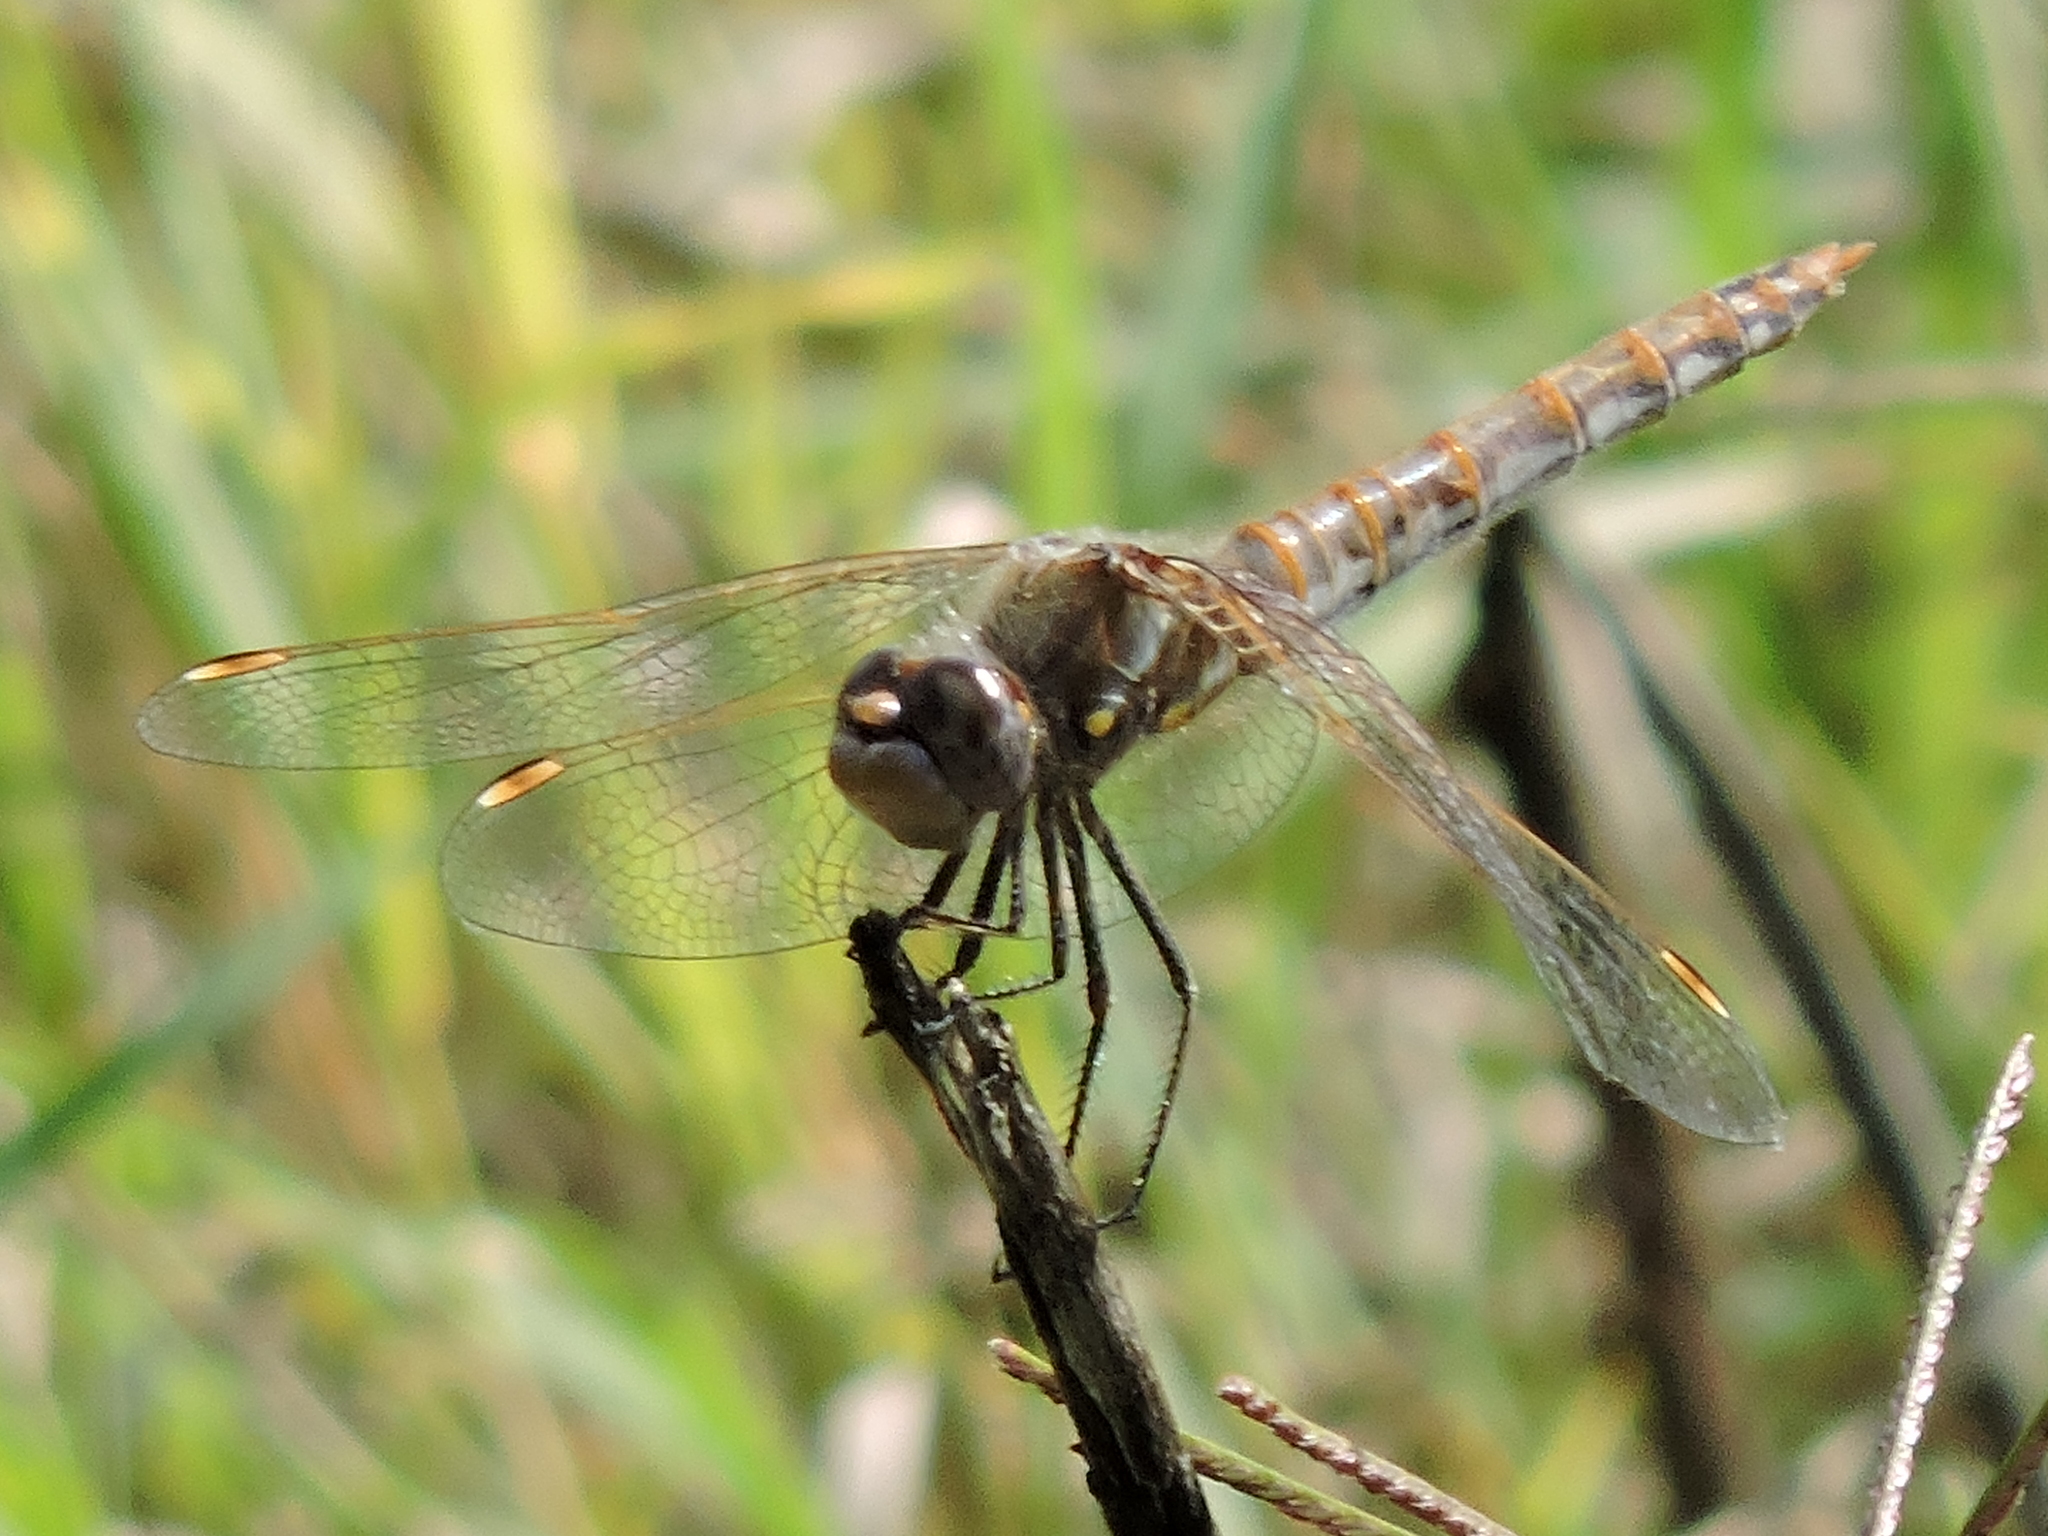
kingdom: Animalia
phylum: Arthropoda
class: Insecta
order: Odonata
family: Libellulidae
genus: Sympetrum
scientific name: Sympetrum corruptum
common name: Variegated meadowhawk
